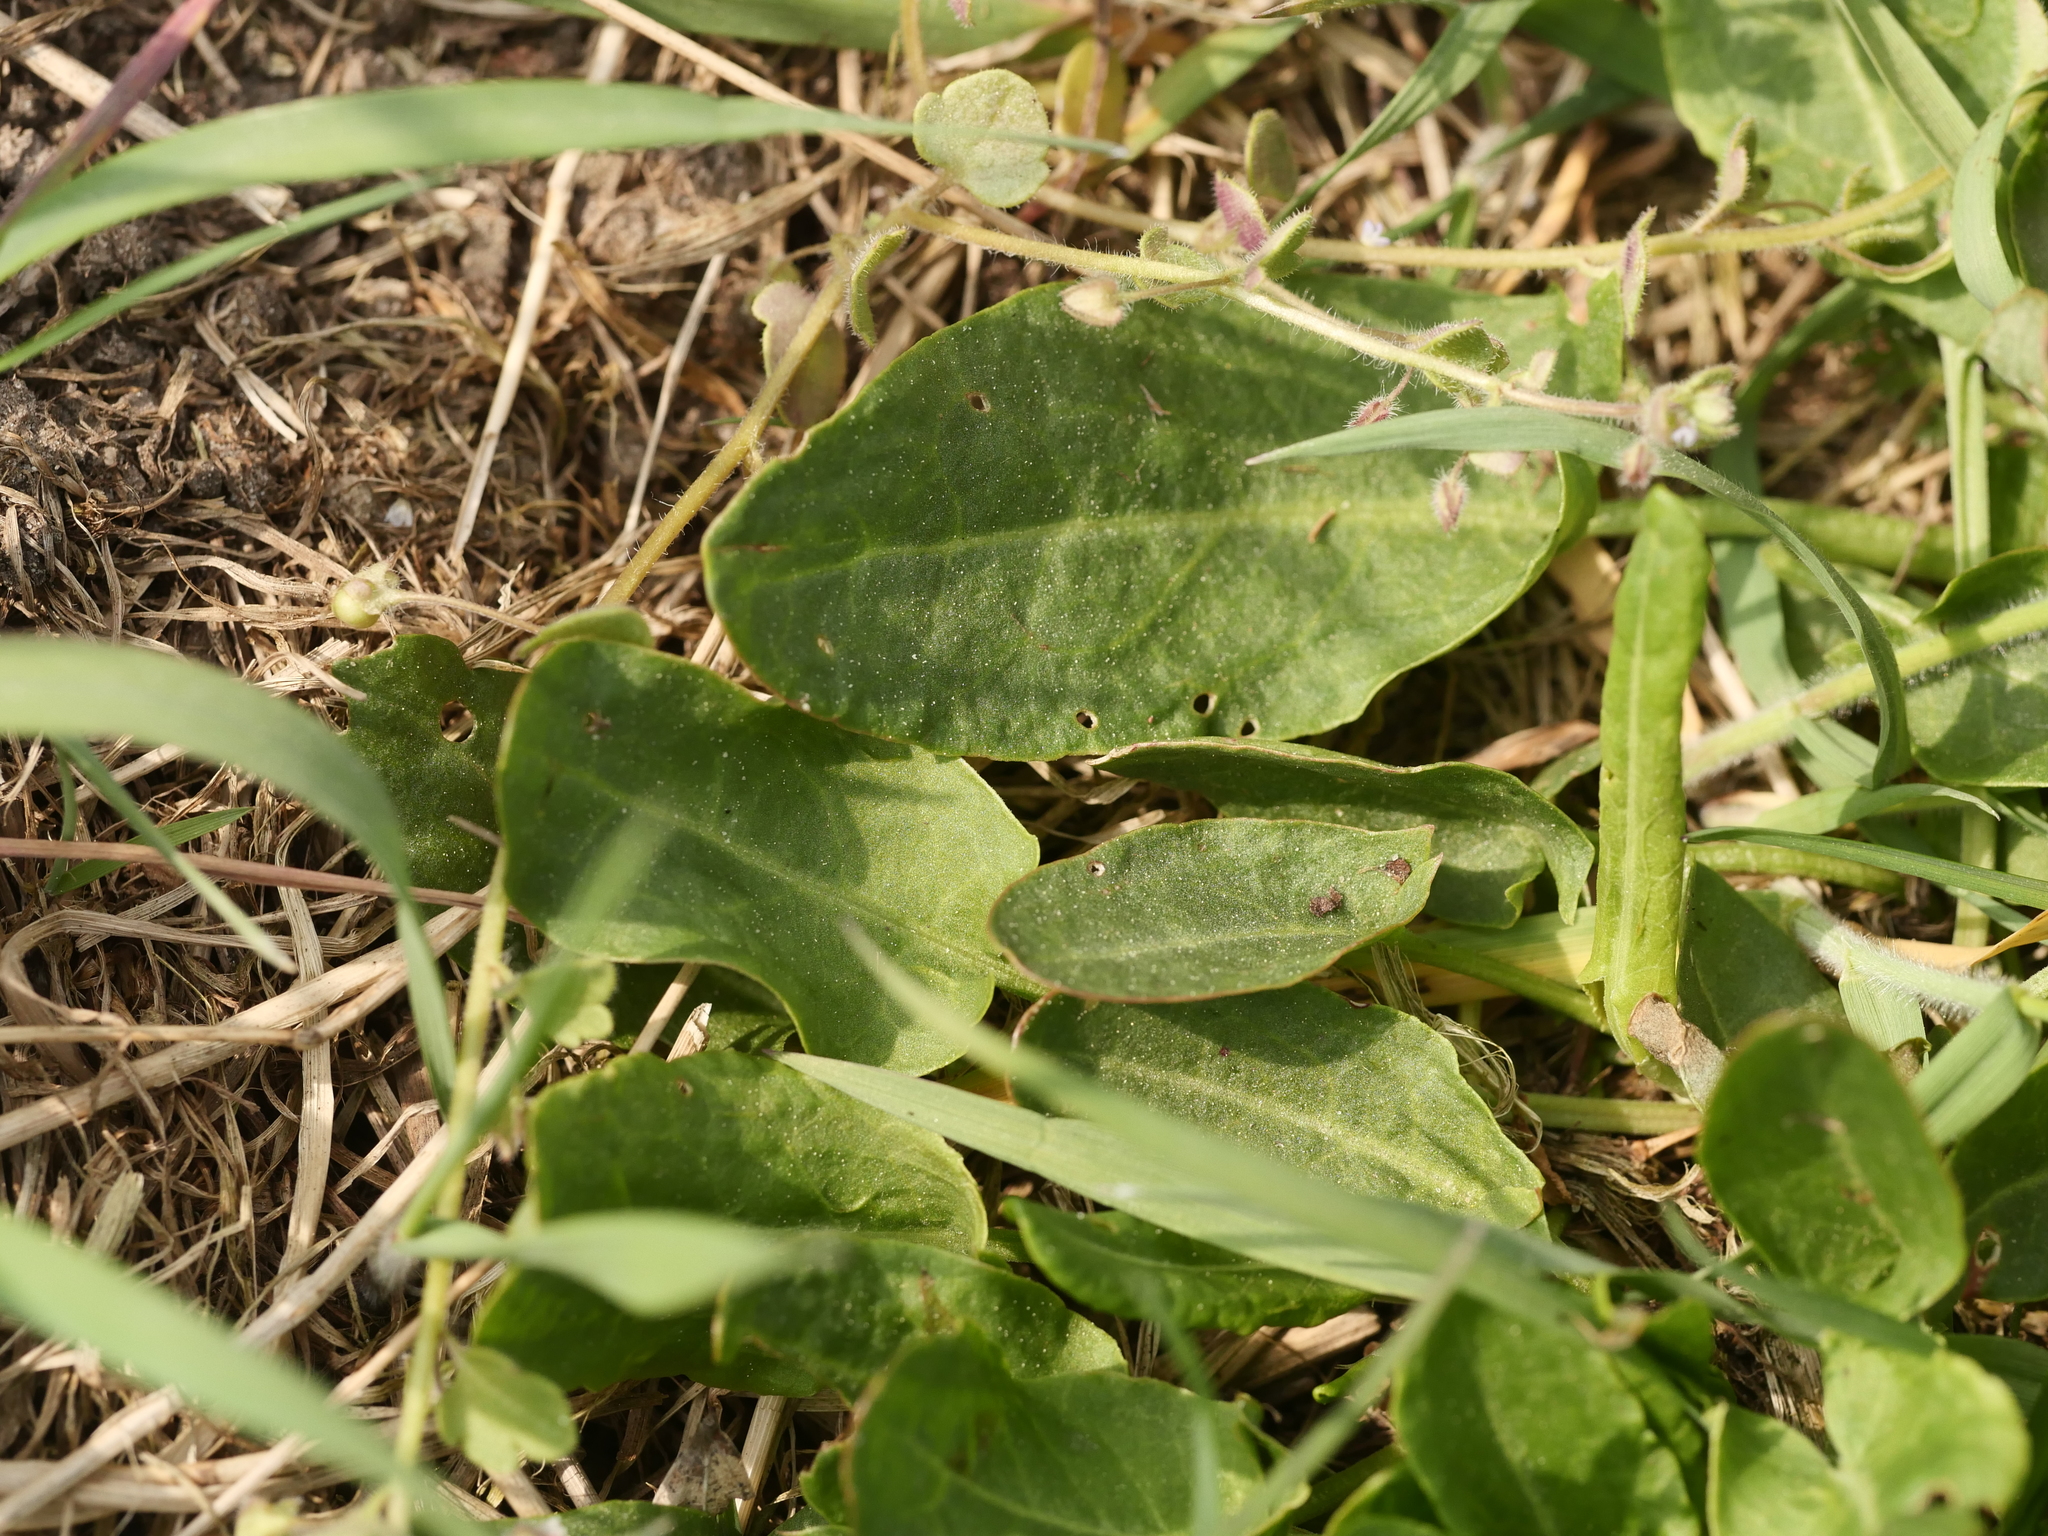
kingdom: Plantae
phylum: Tracheophyta
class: Magnoliopsida
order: Caryophyllales
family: Polygonaceae
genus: Rumex
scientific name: Rumex acetosa
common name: Garden sorrel
